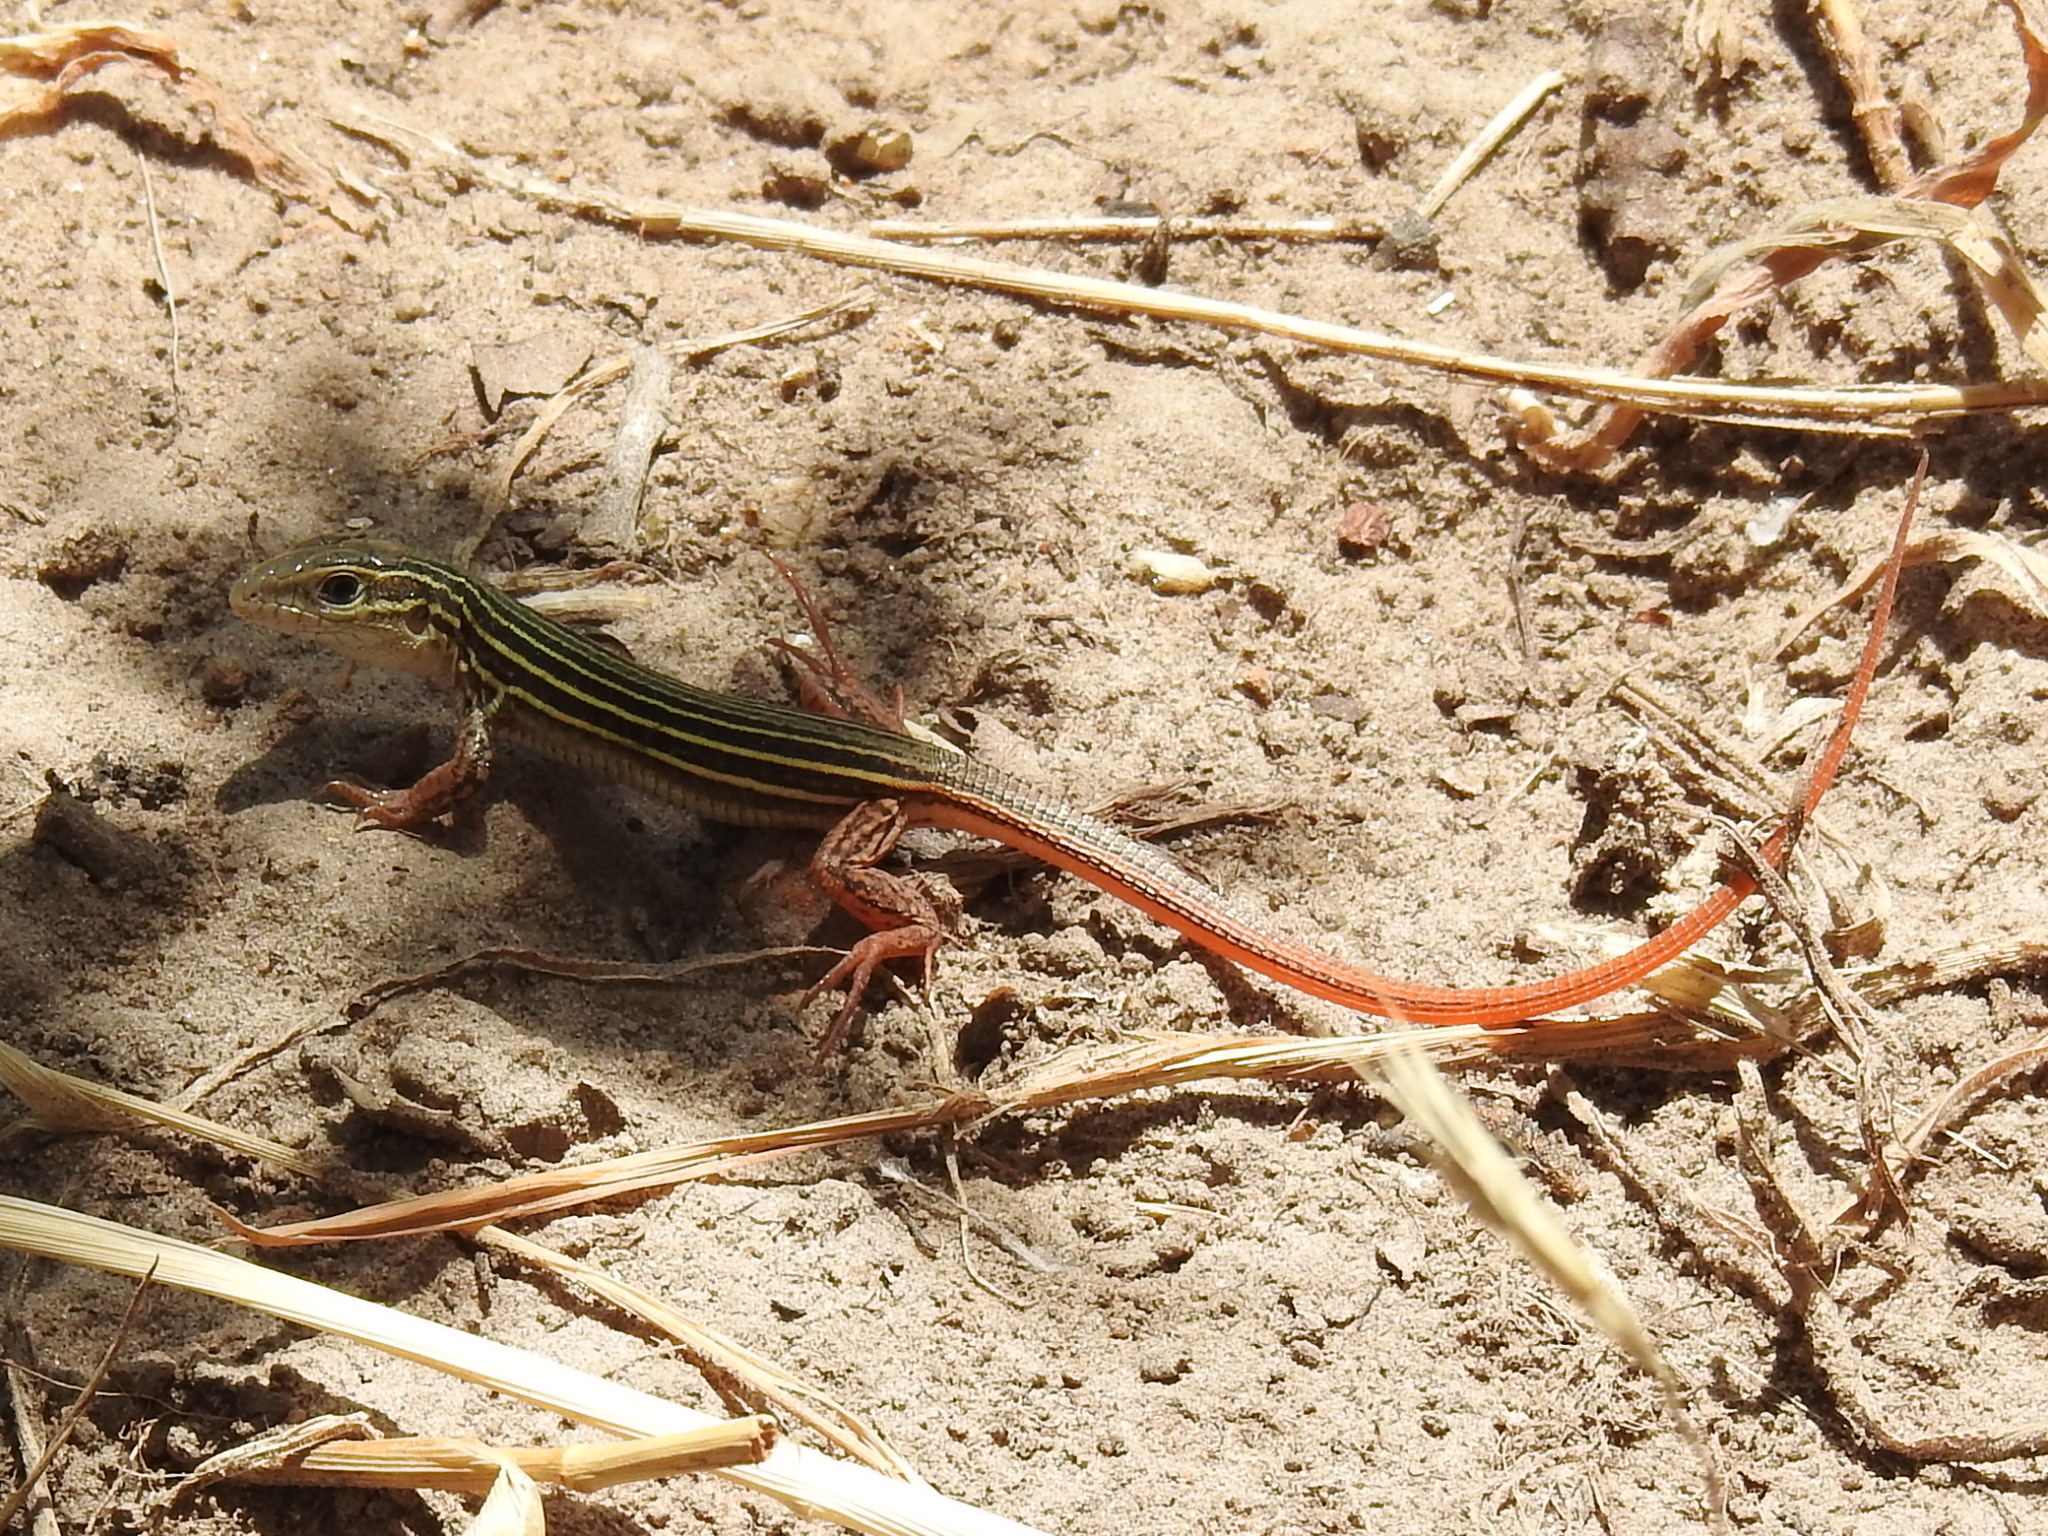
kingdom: Animalia
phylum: Chordata
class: Squamata
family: Teiidae
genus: Aspidoscelis
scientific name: Aspidoscelis gularis
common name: Eastern spotted whiptail
